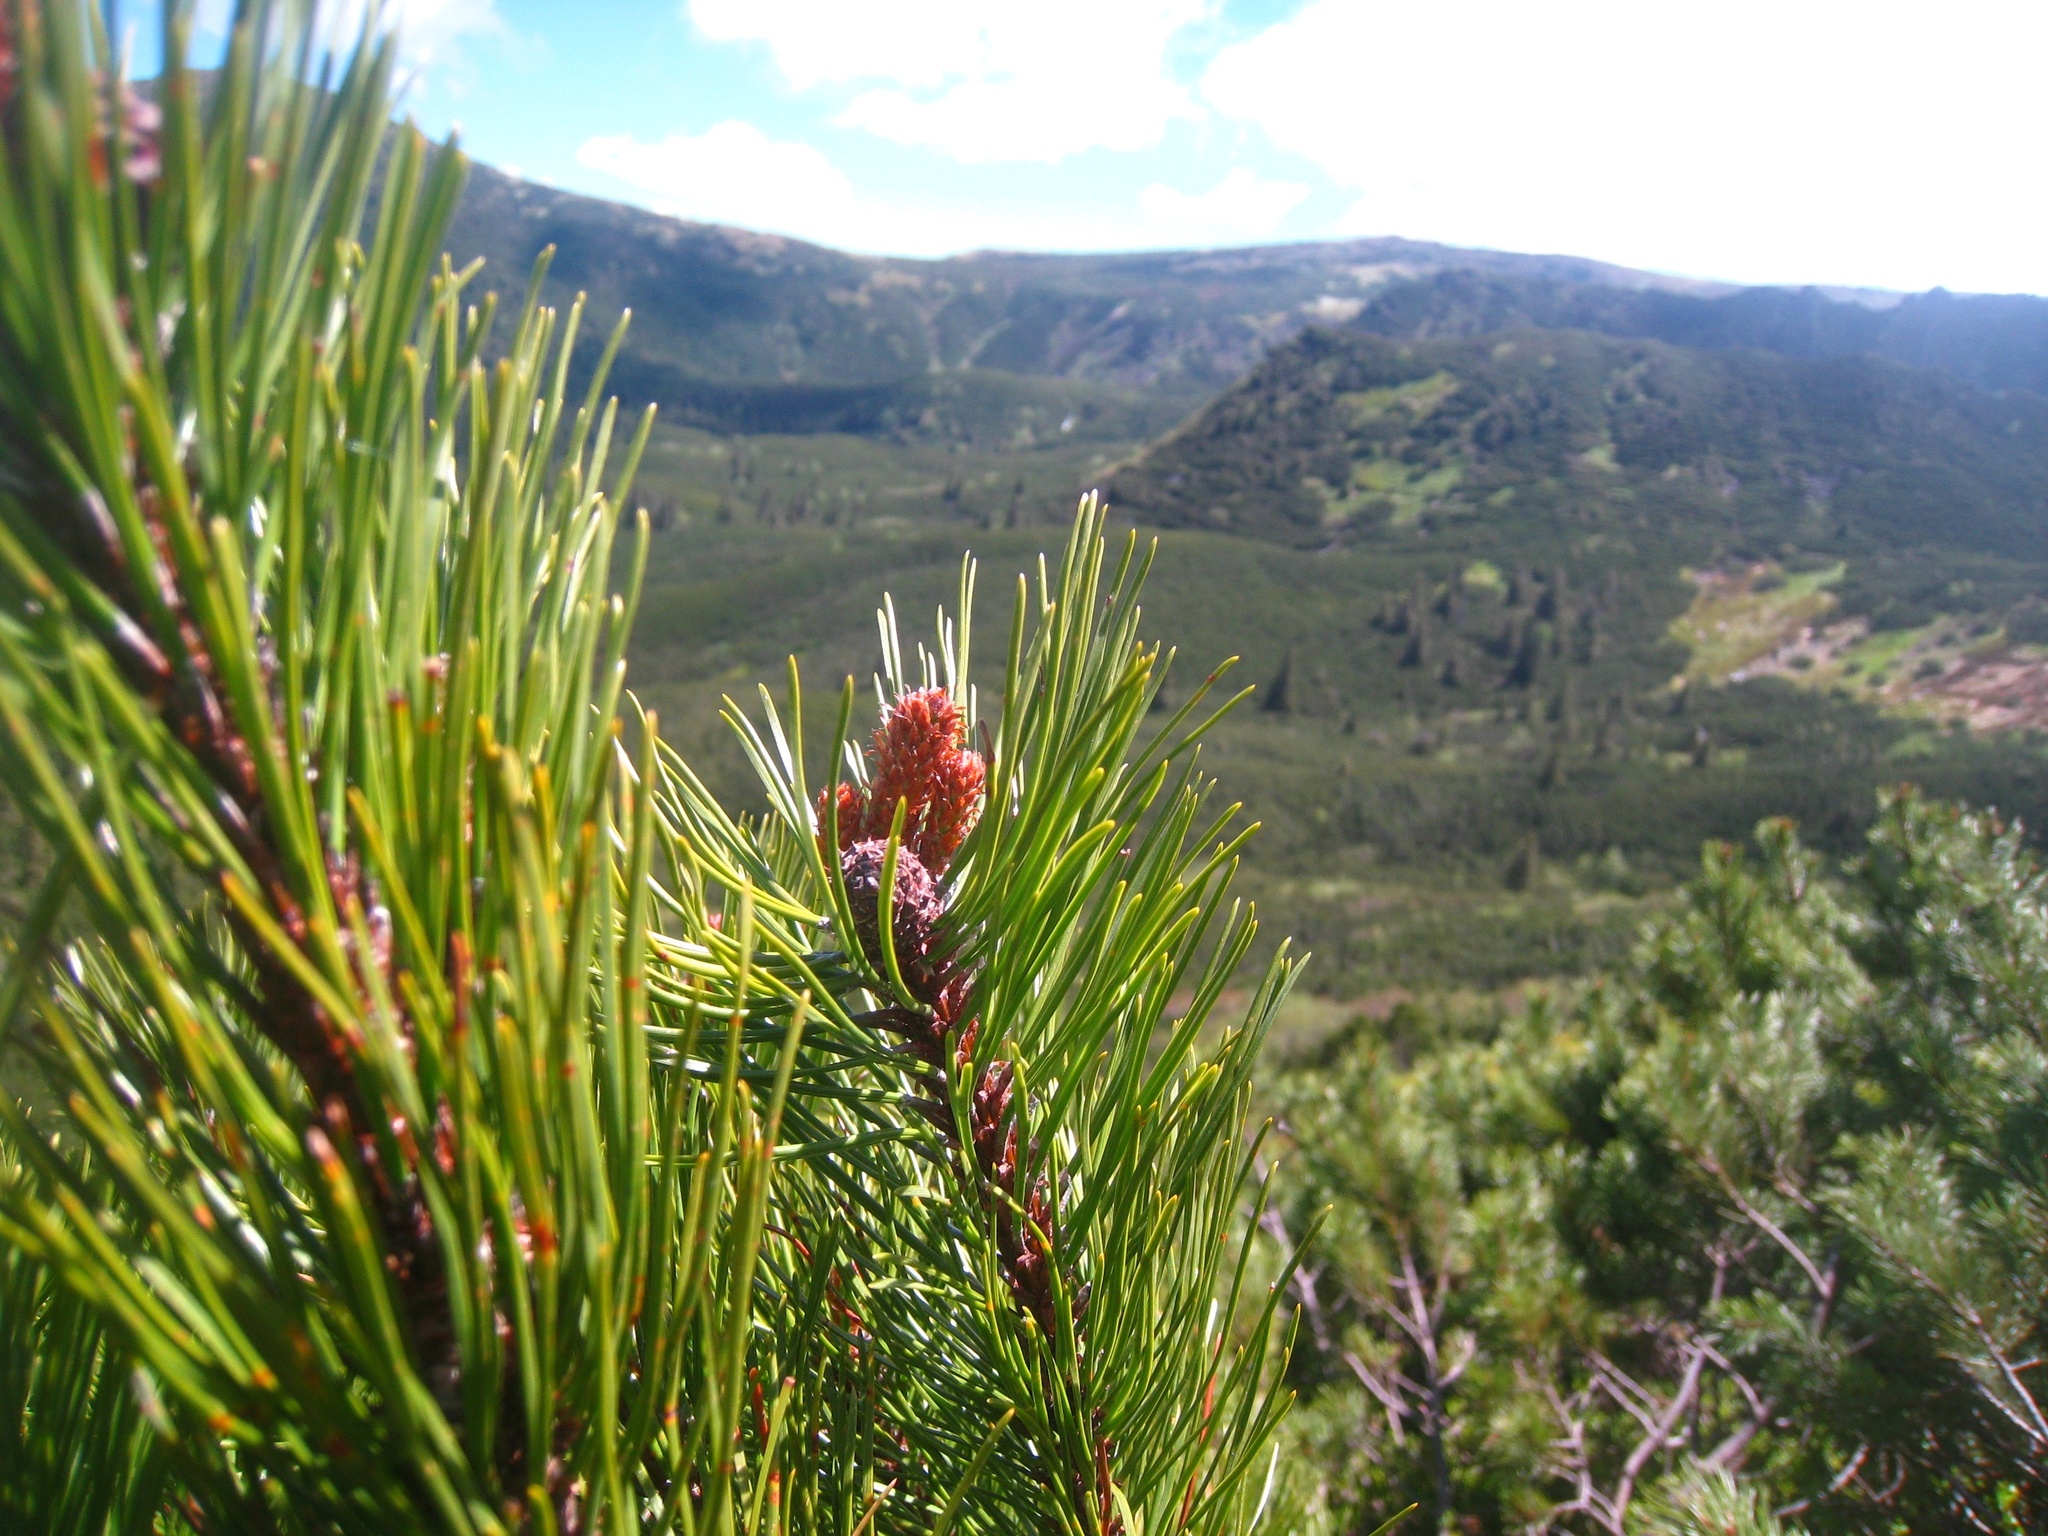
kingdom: Plantae
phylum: Tracheophyta
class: Pinopsida
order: Pinales
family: Pinaceae
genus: Pinus
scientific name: Pinus mugo
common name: Mugo pine
